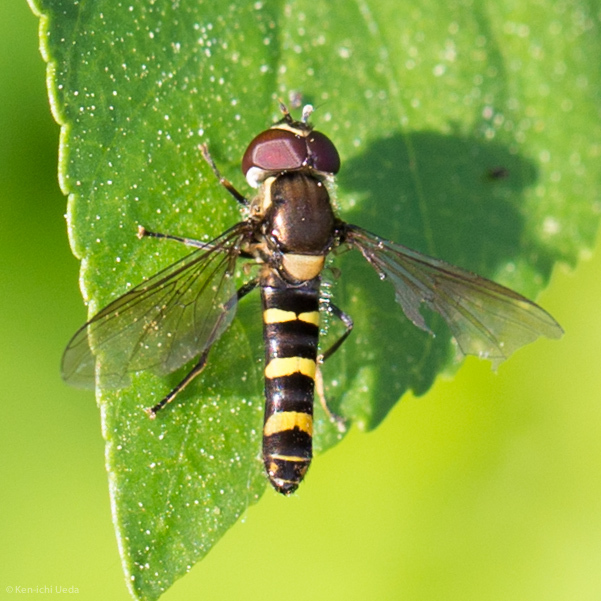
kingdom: Animalia
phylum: Arthropoda
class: Insecta
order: Diptera
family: Syrphidae
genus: Fazia
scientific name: Fazia micrura
